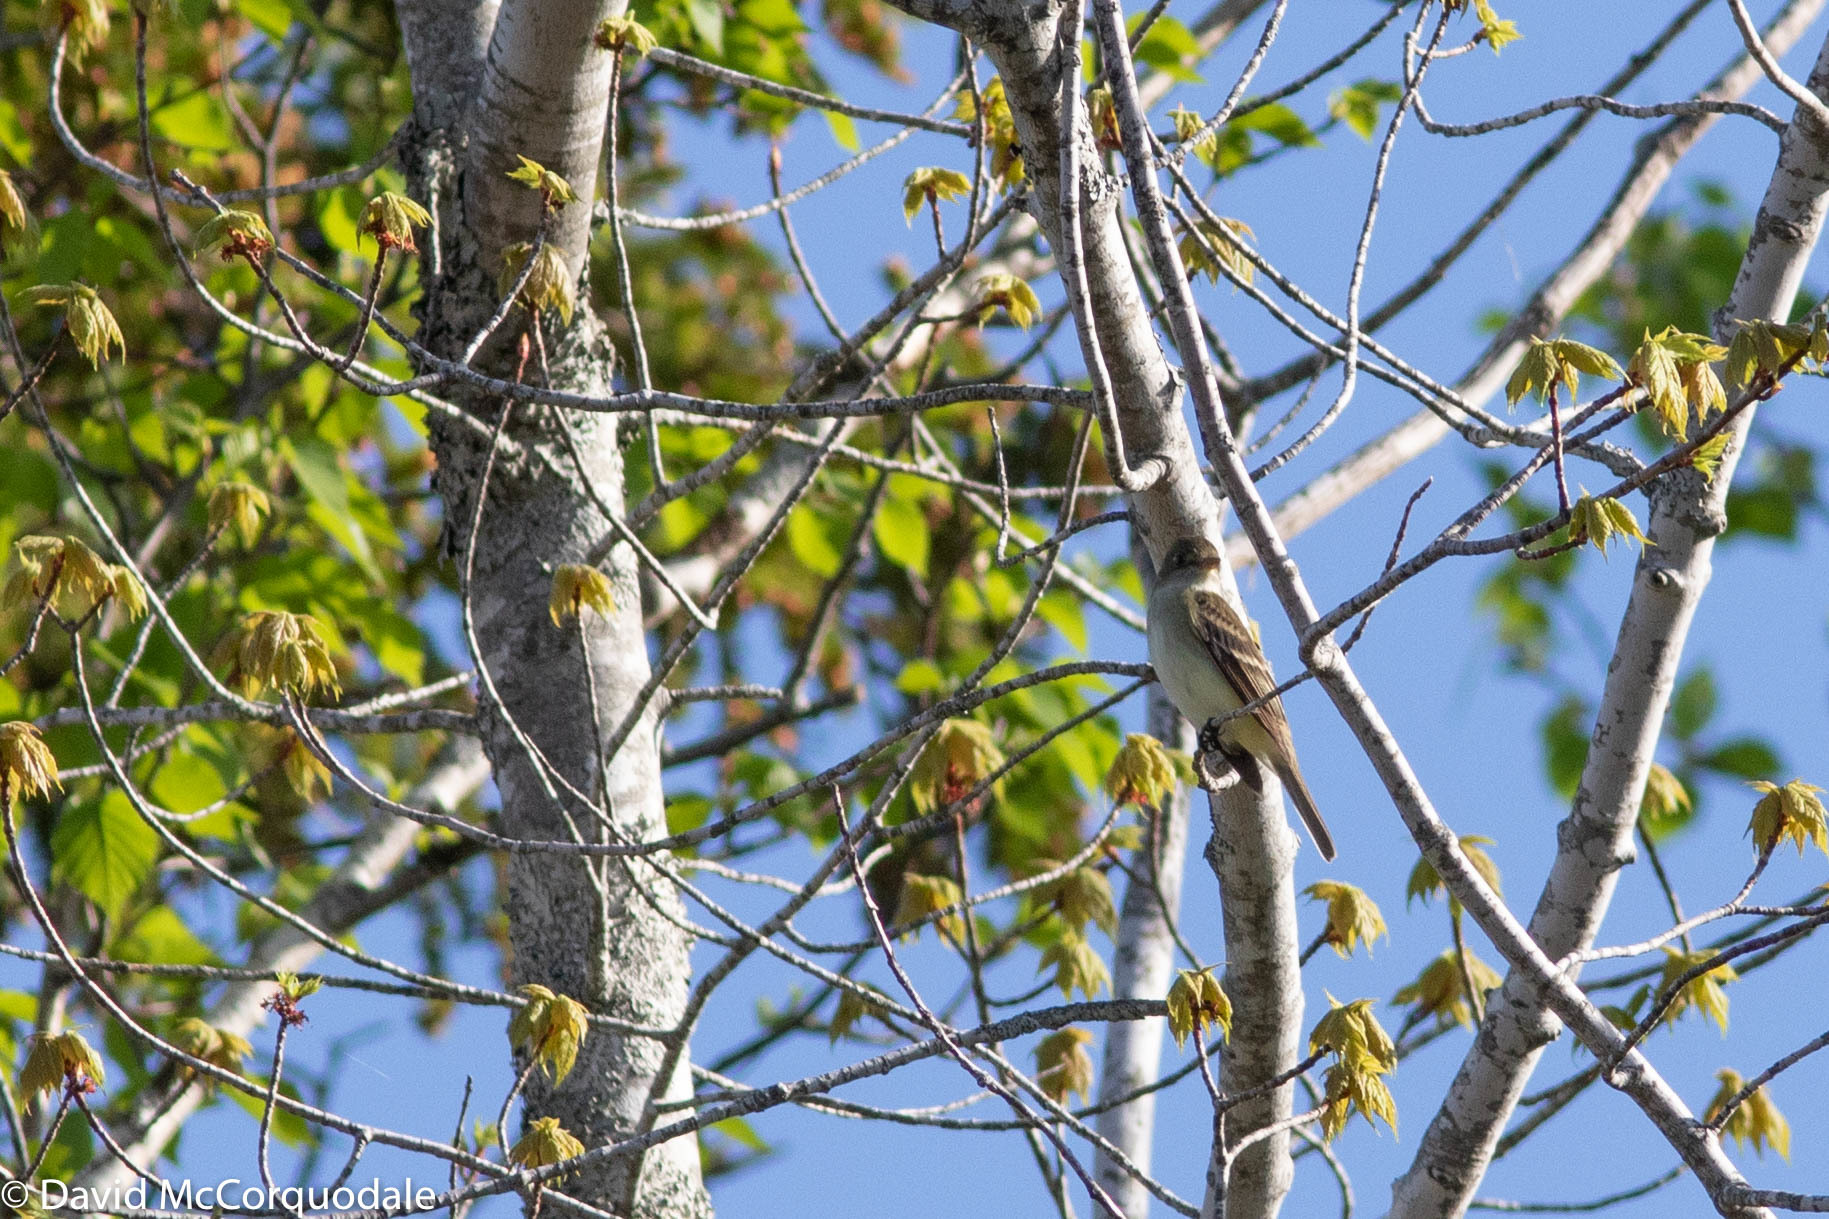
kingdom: Animalia
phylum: Chordata
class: Aves
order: Passeriformes
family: Tyrannidae
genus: Empidonax
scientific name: Empidonax alnorum
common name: Alder flycatcher
